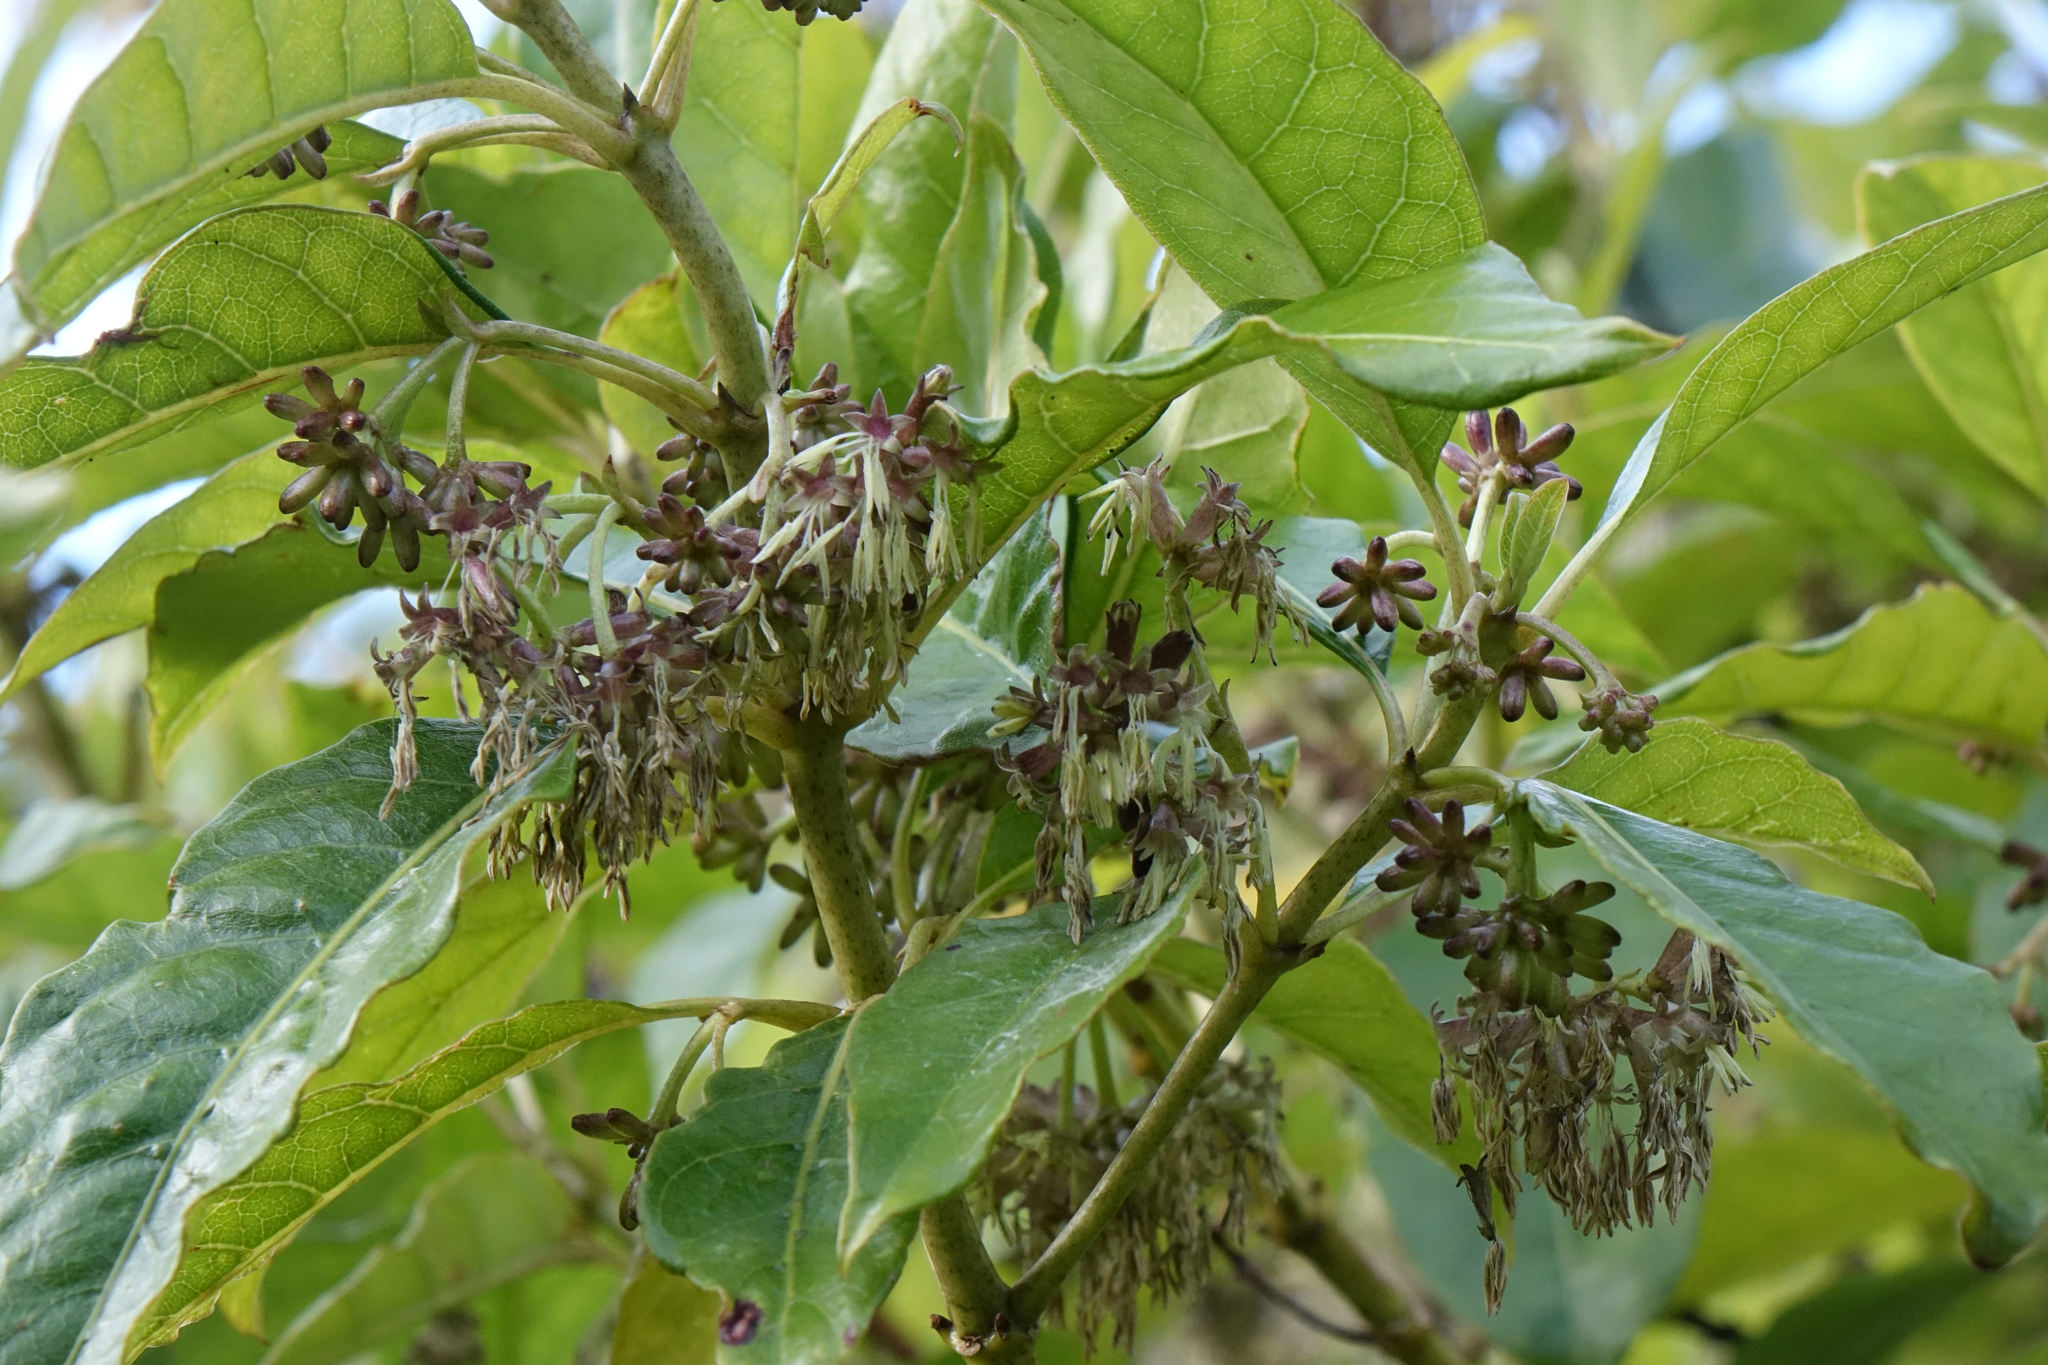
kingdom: Plantae
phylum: Tracheophyta
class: Magnoliopsida
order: Gentianales
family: Rubiaceae
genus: Coprosma
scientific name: Coprosma autumnalis
